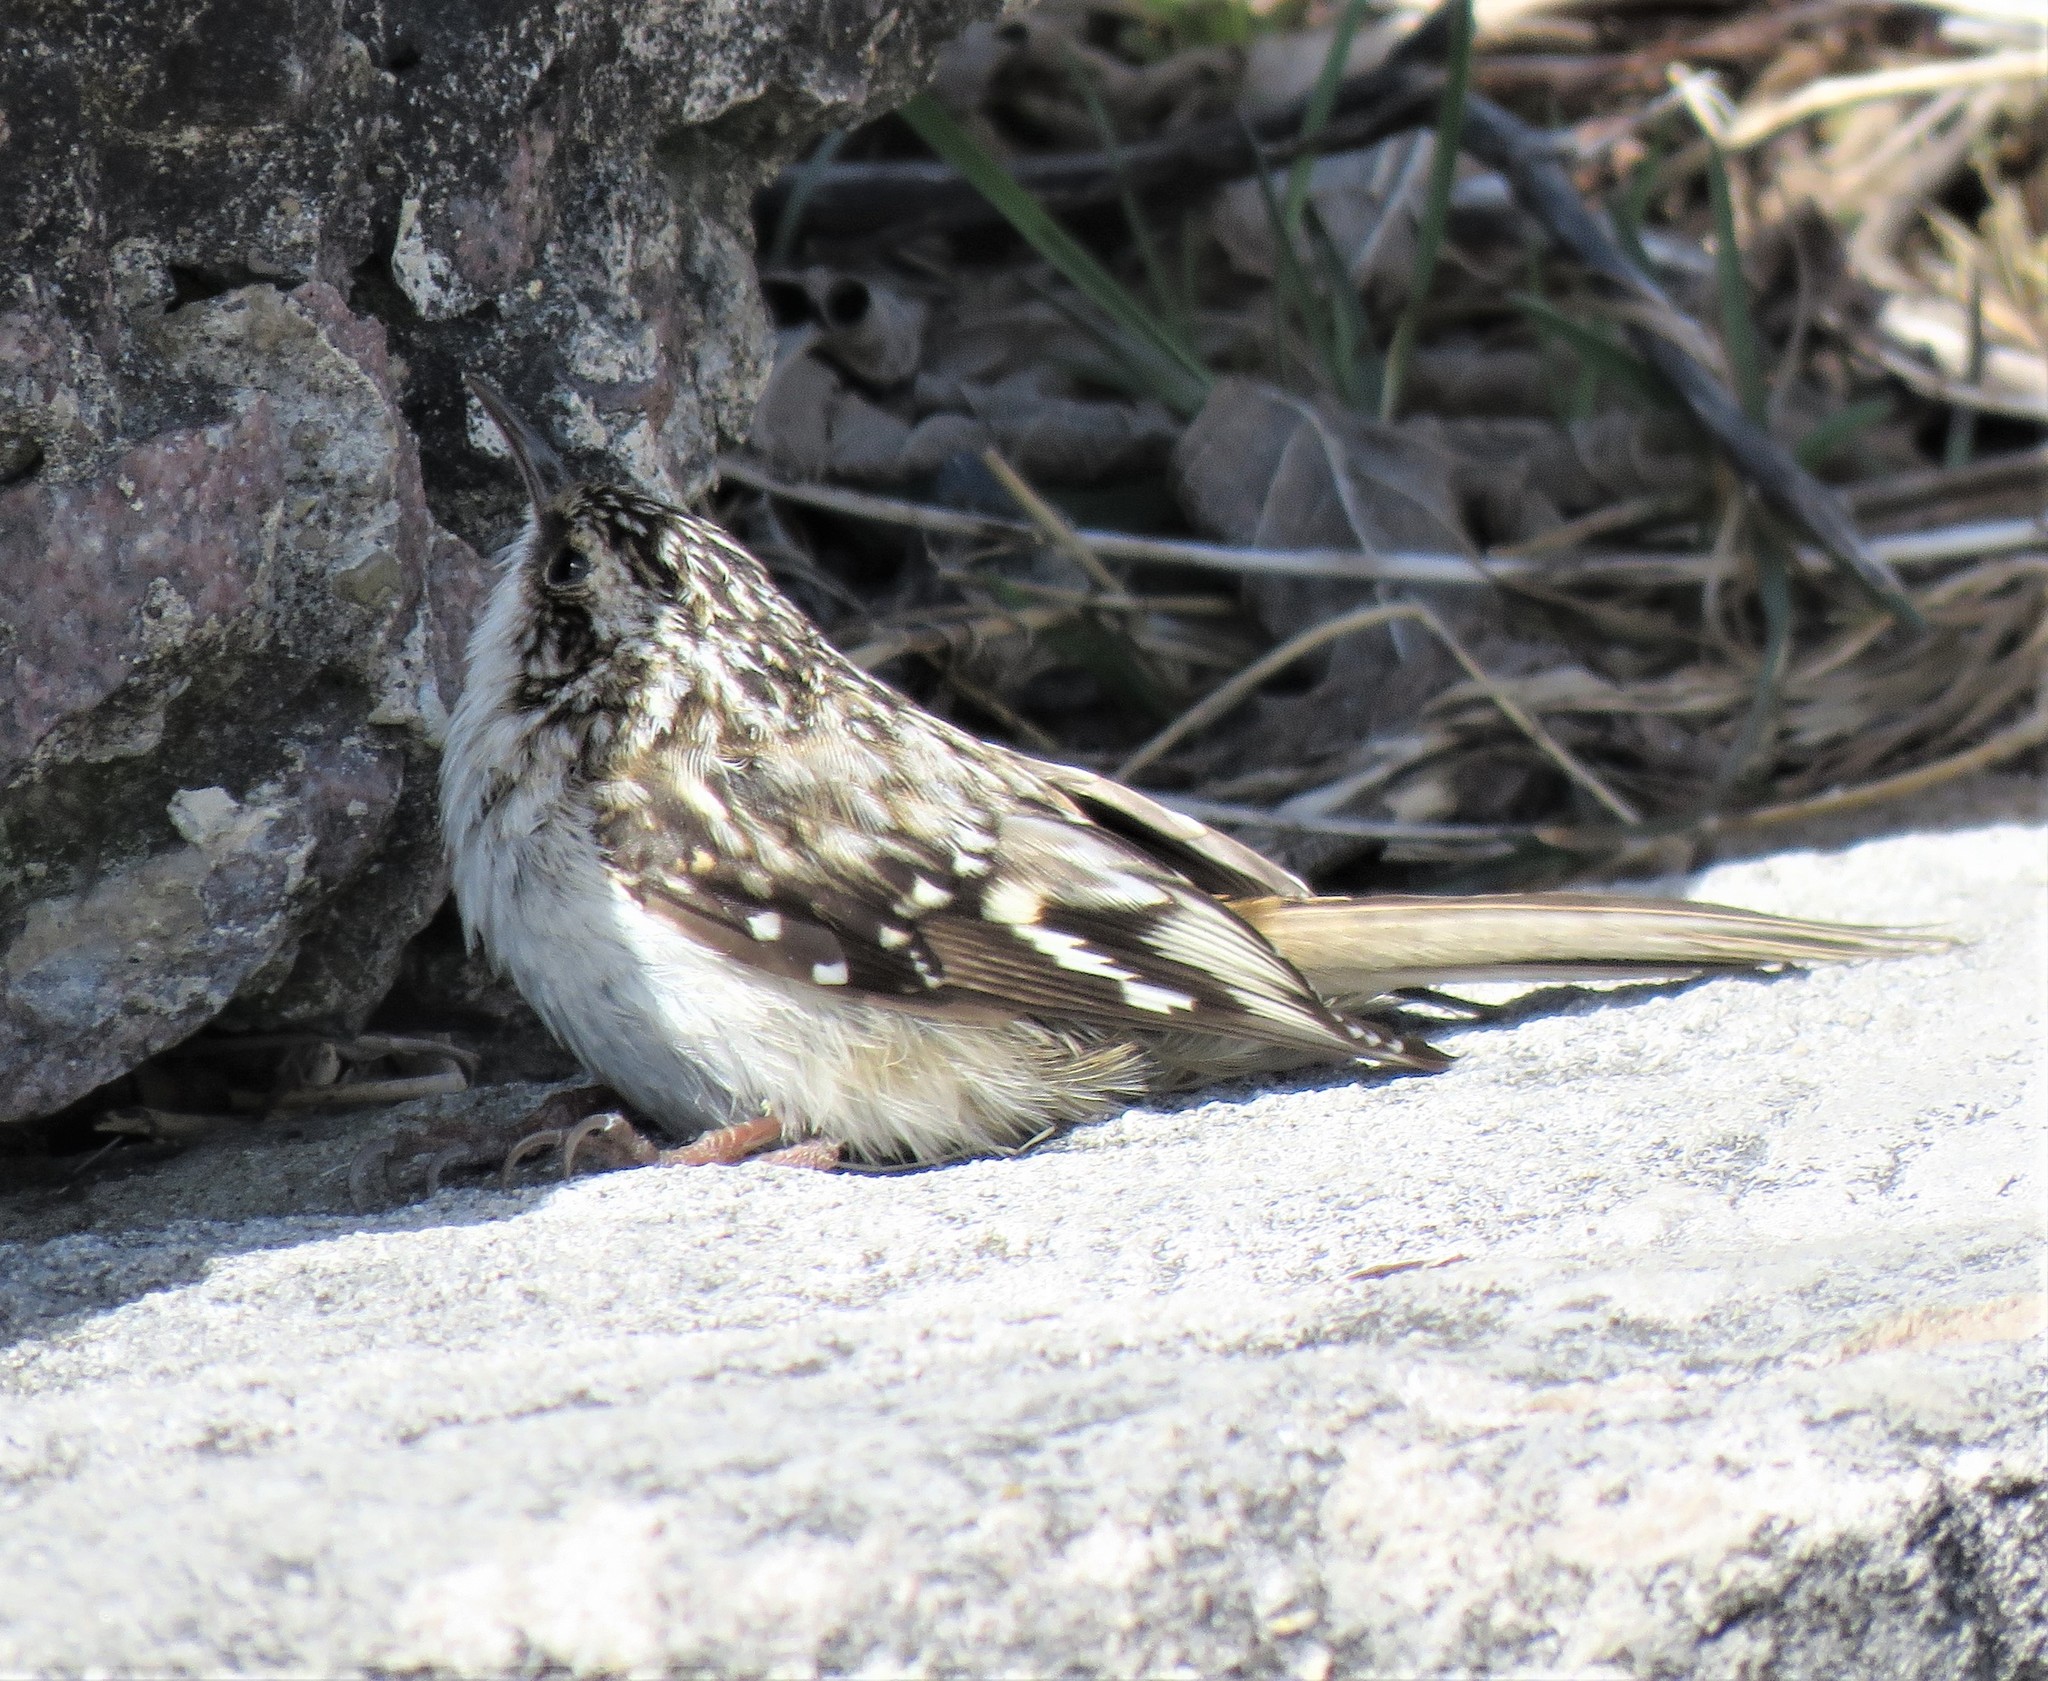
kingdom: Animalia
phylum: Chordata
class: Aves
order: Passeriformes
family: Certhiidae
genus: Certhia
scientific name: Certhia americana
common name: Brown creeper
